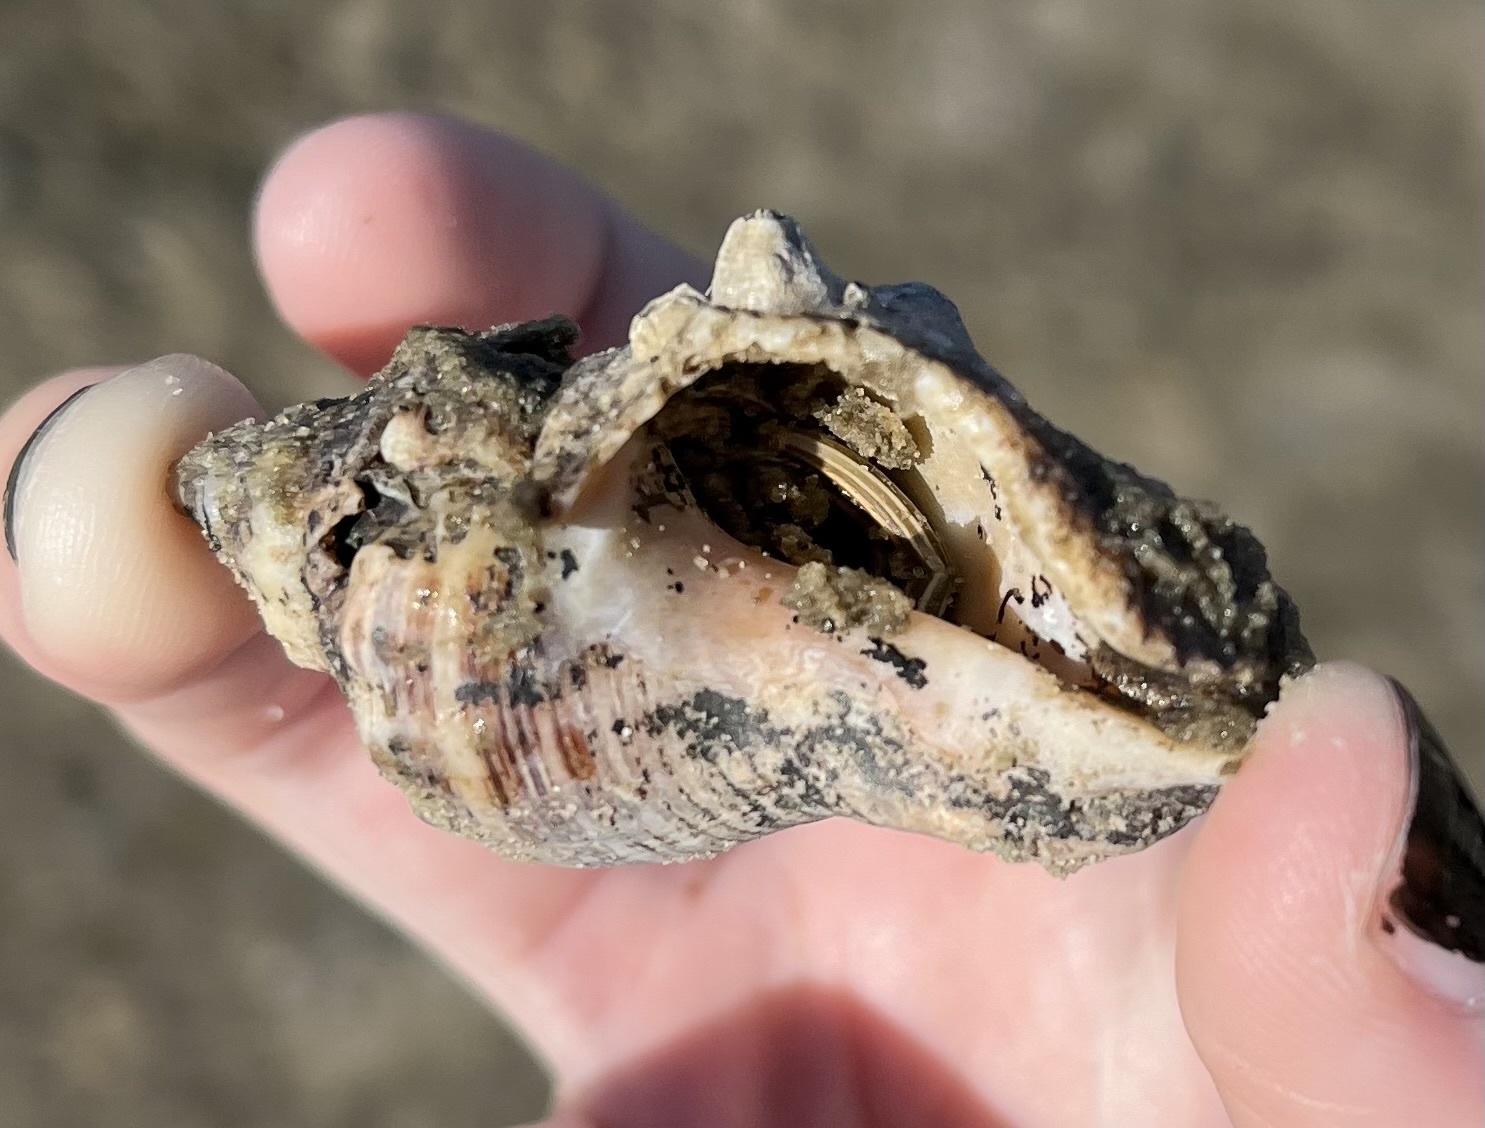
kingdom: Animalia
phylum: Arthropoda
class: Malacostraca
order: Decapoda
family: Diogenidae
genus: Clibanarius
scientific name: Clibanarius vittatus
